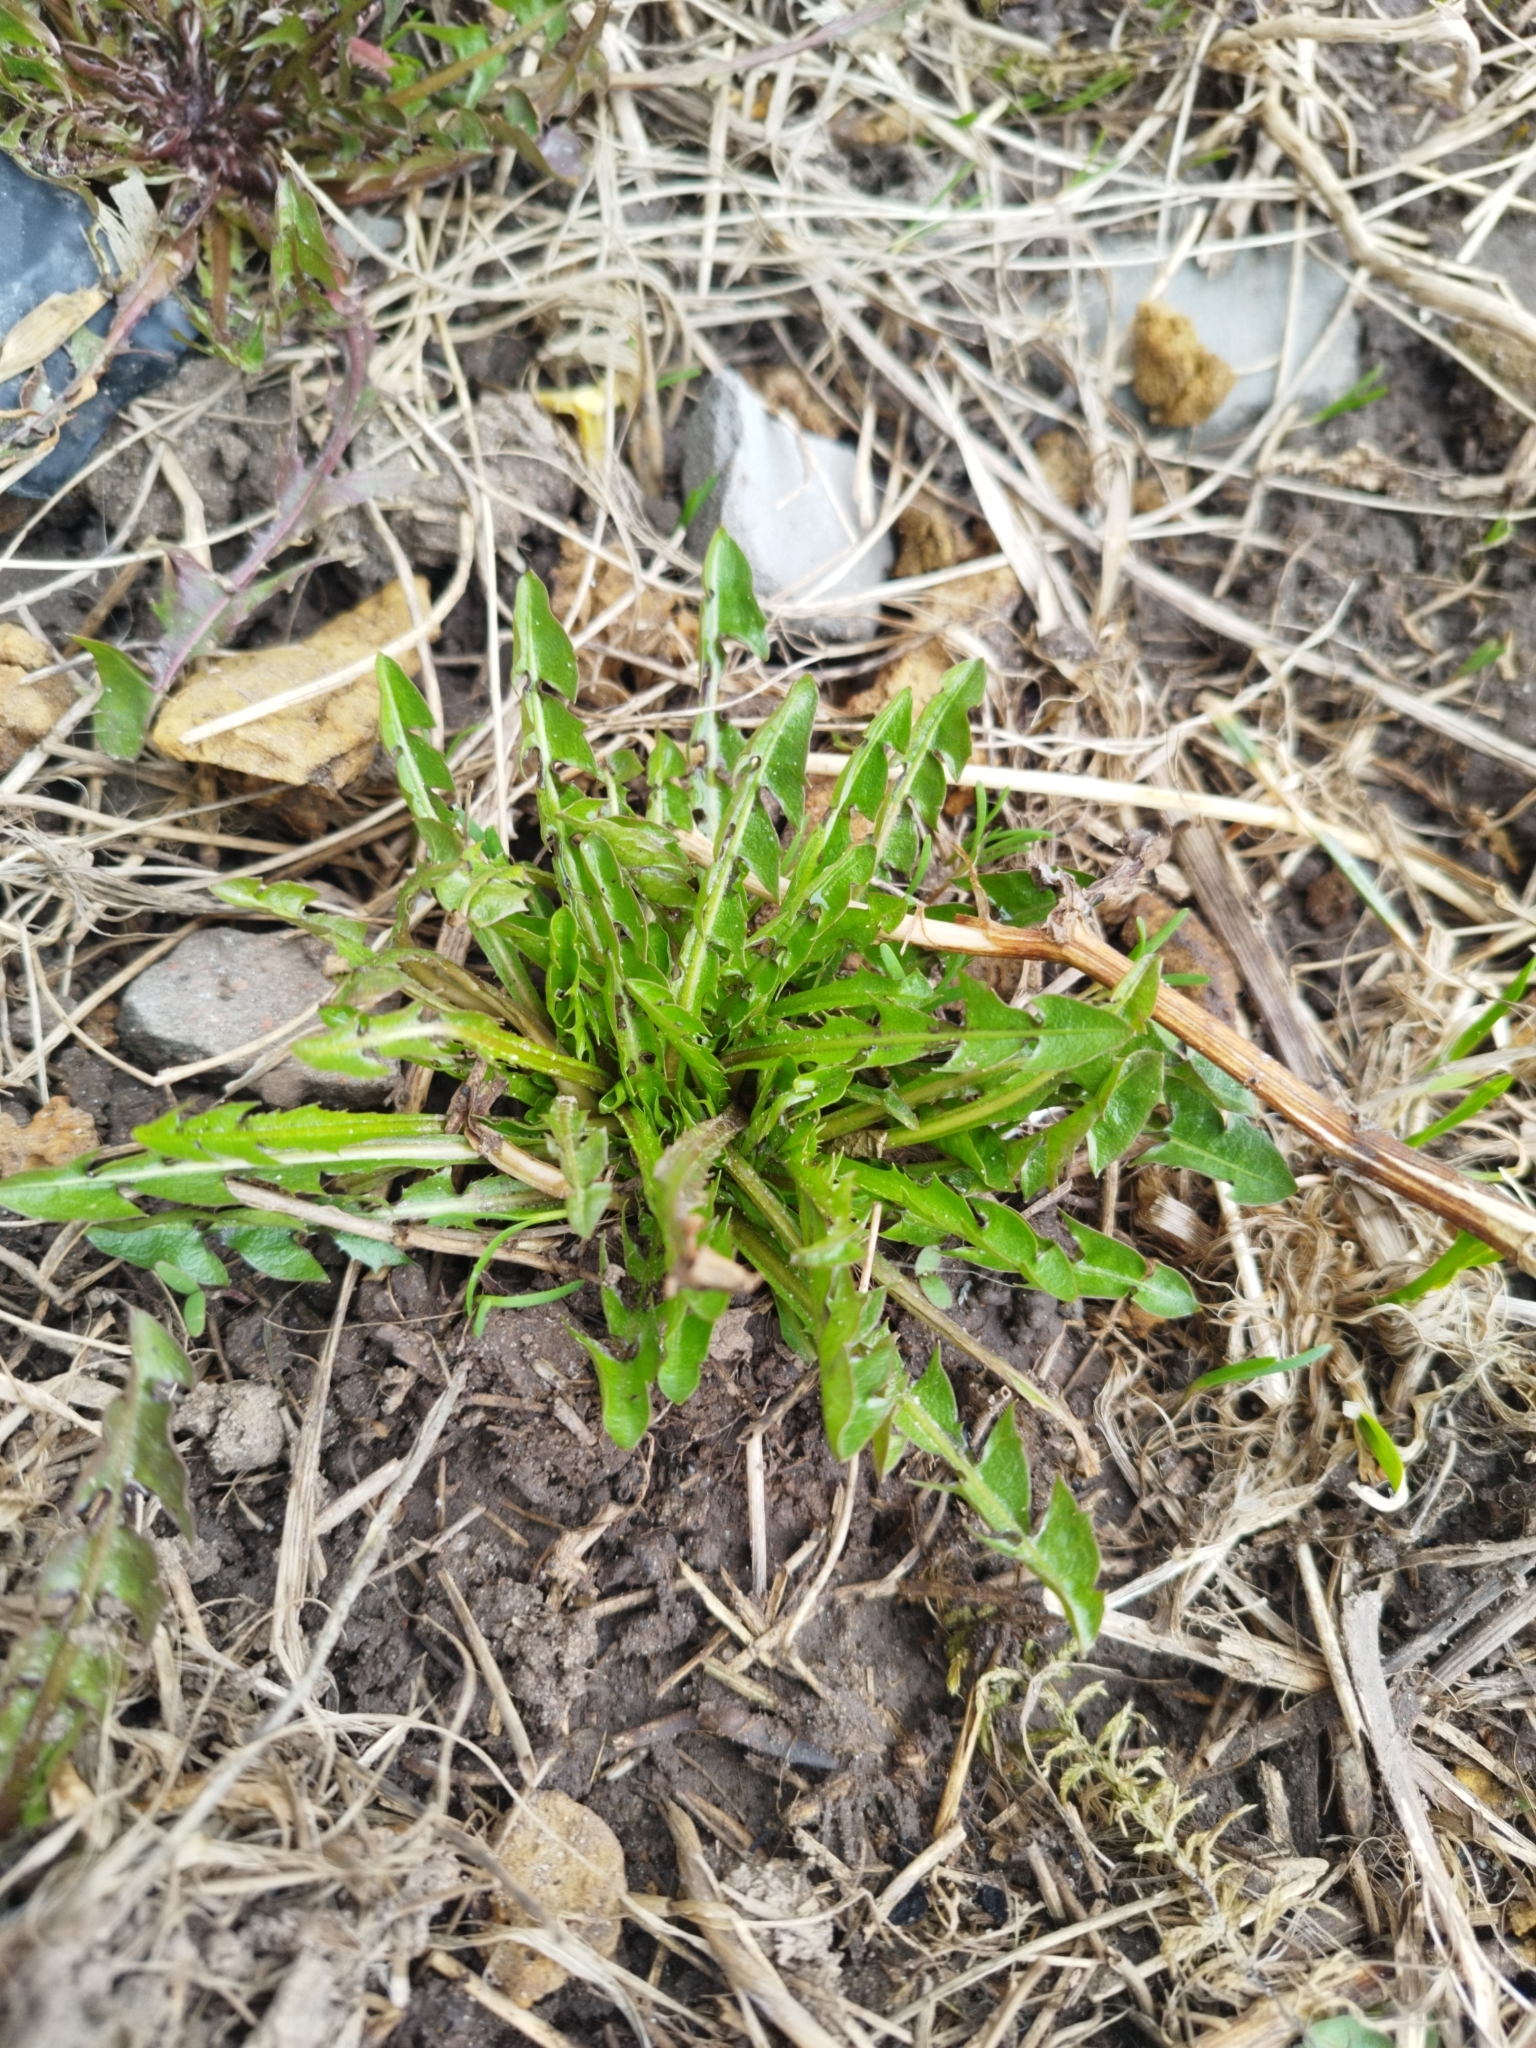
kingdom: Plantae
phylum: Tracheophyta
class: Magnoliopsida
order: Asterales
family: Asteraceae
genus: Taraxacum
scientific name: Taraxacum officinale
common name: Common dandelion
